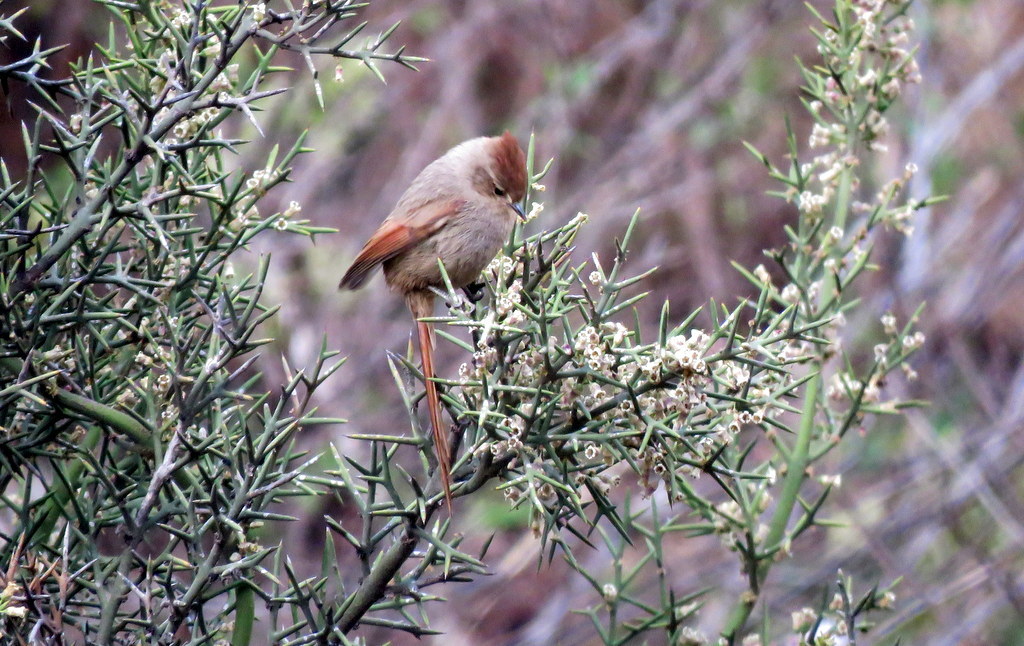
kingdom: Animalia
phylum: Chordata
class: Aves
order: Passeriformes
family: Furnariidae
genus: Leptasthenura
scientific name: Leptasthenura fuliginiceps
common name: Brown-capped tit-spinetail
